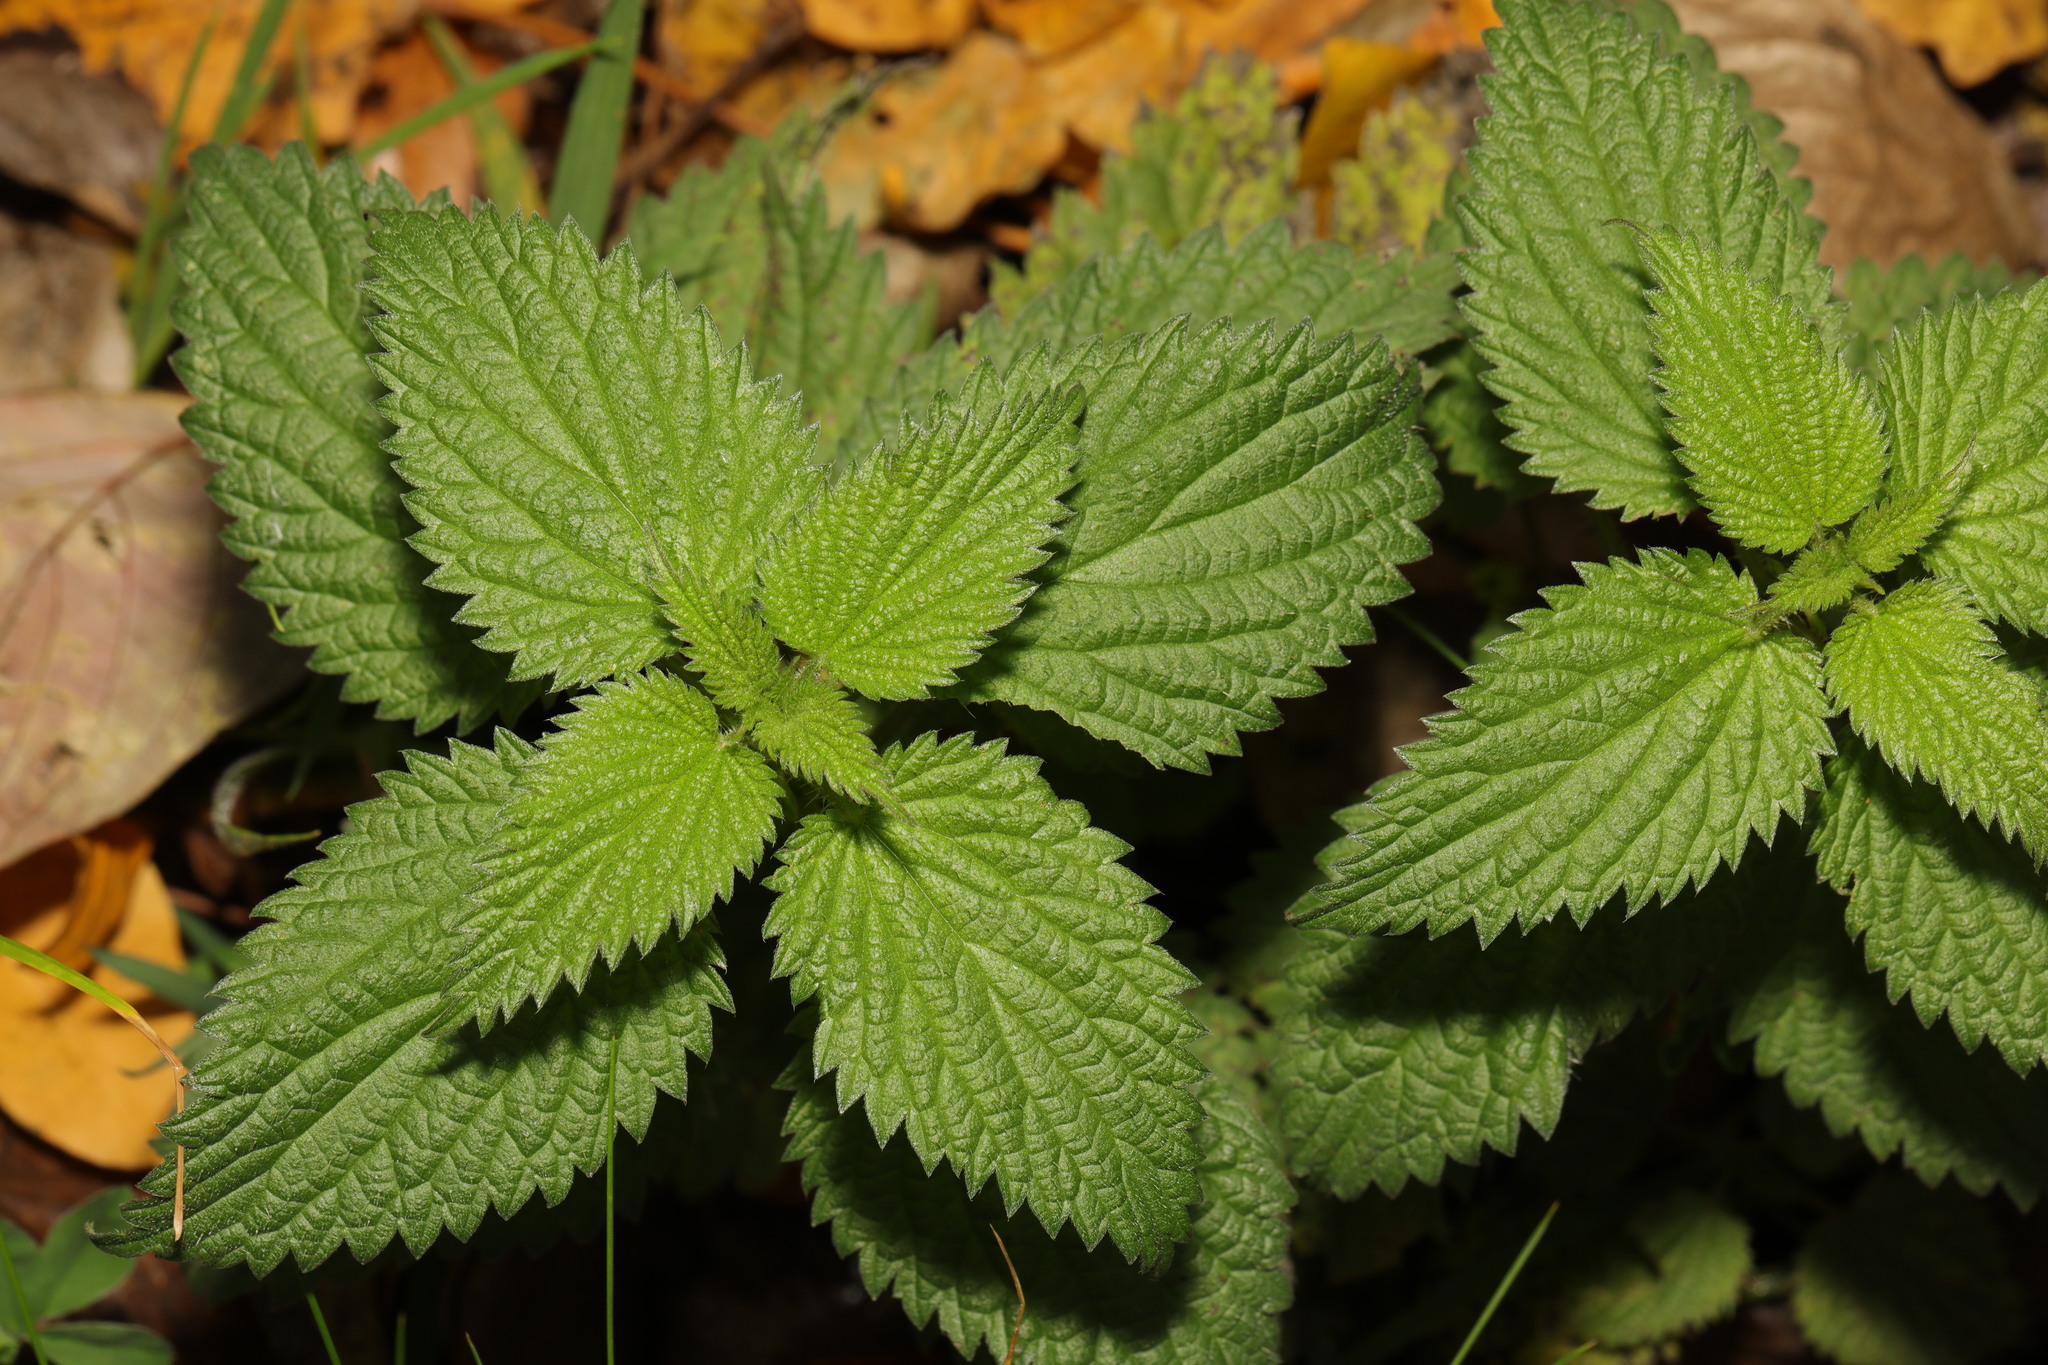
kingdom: Plantae
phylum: Tracheophyta
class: Magnoliopsida
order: Rosales
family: Urticaceae
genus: Urtica
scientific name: Urtica dioica
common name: Common nettle
